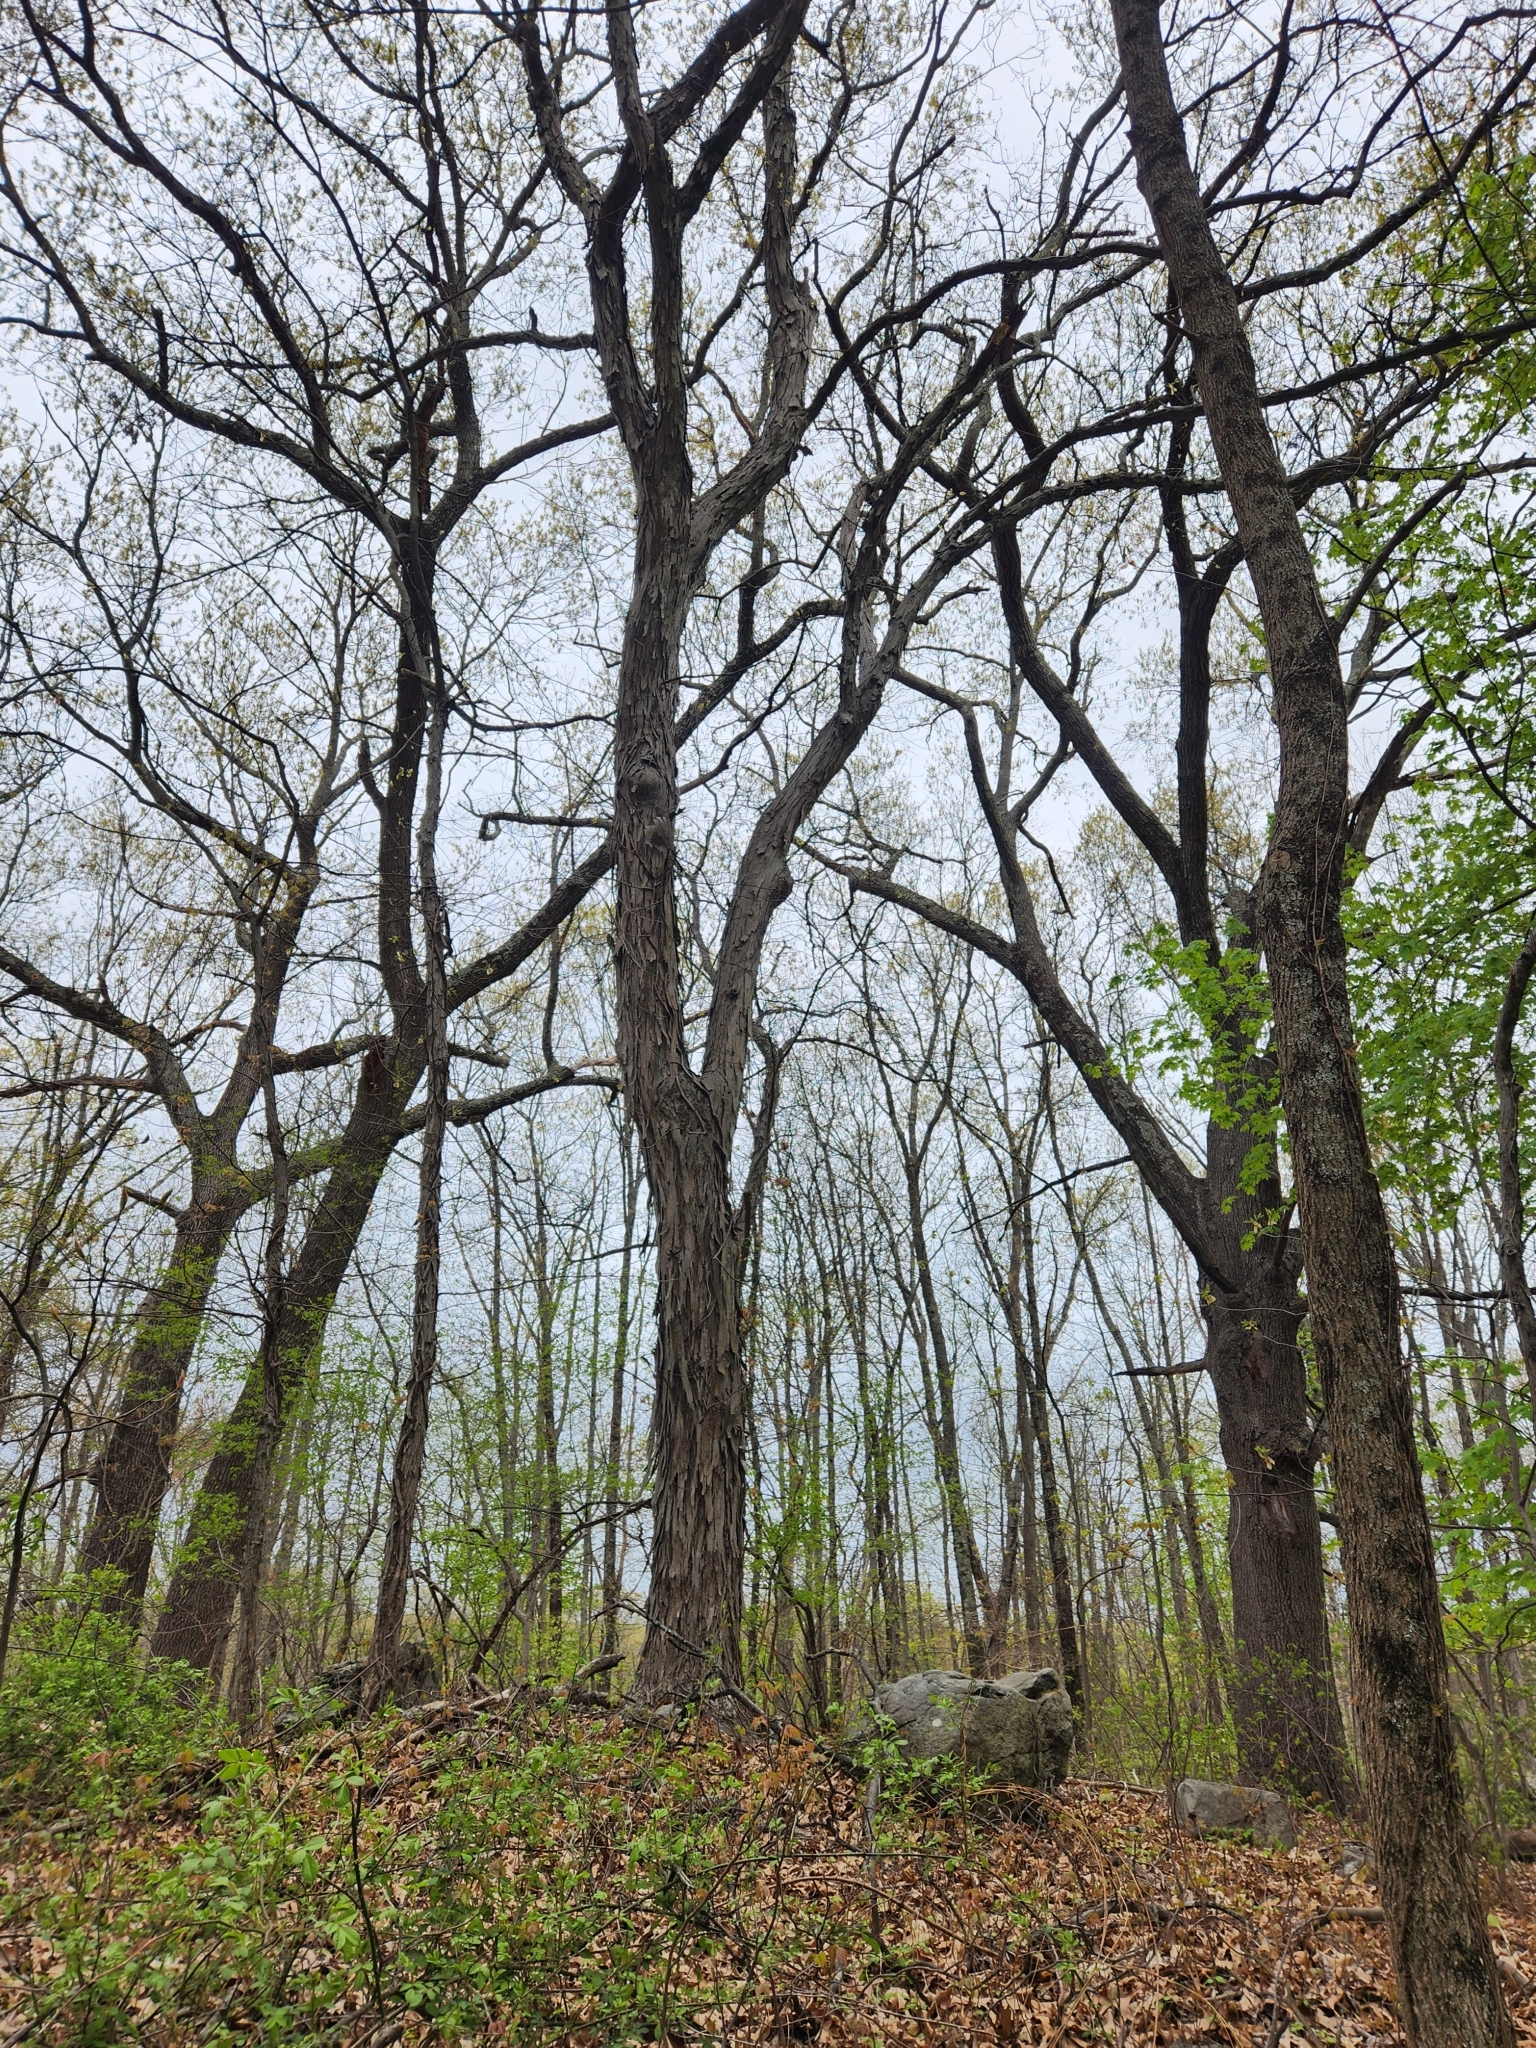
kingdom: Plantae
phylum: Tracheophyta
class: Magnoliopsida
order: Fagales
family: Juglandaceae
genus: Carya
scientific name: Carya ovata
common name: Shagbark hickory
